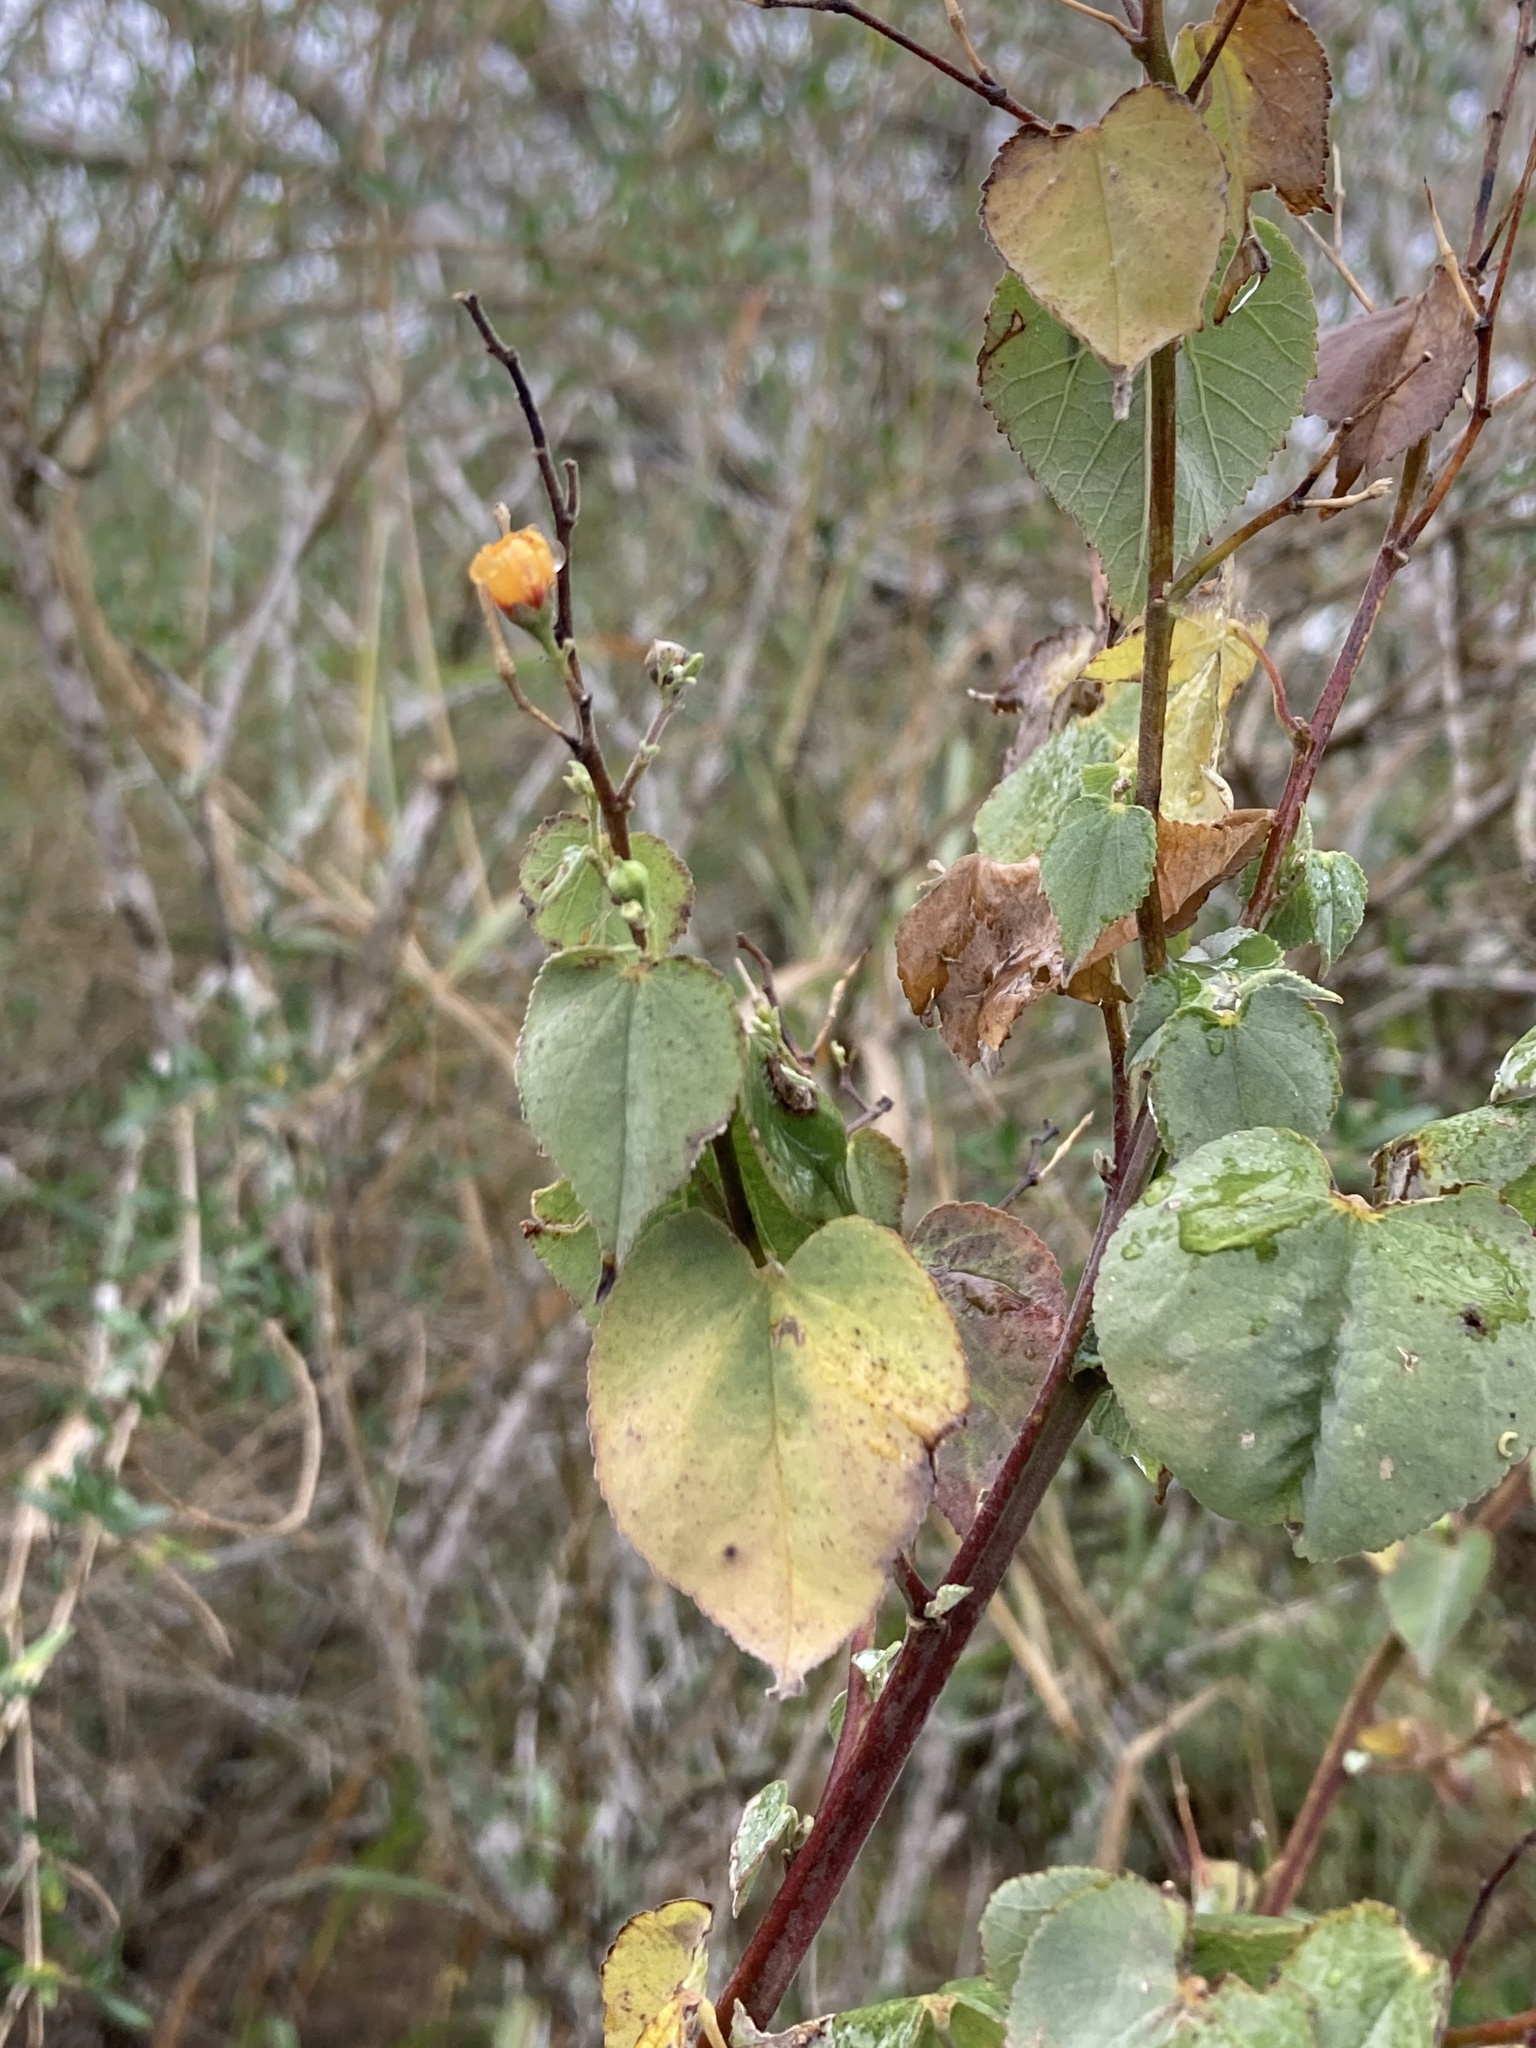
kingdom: Plantae
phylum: Tracheophyta
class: Magnoliopsida
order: Malvales
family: Malvaceae
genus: Abutilon
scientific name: Abutilon trisulcatum
